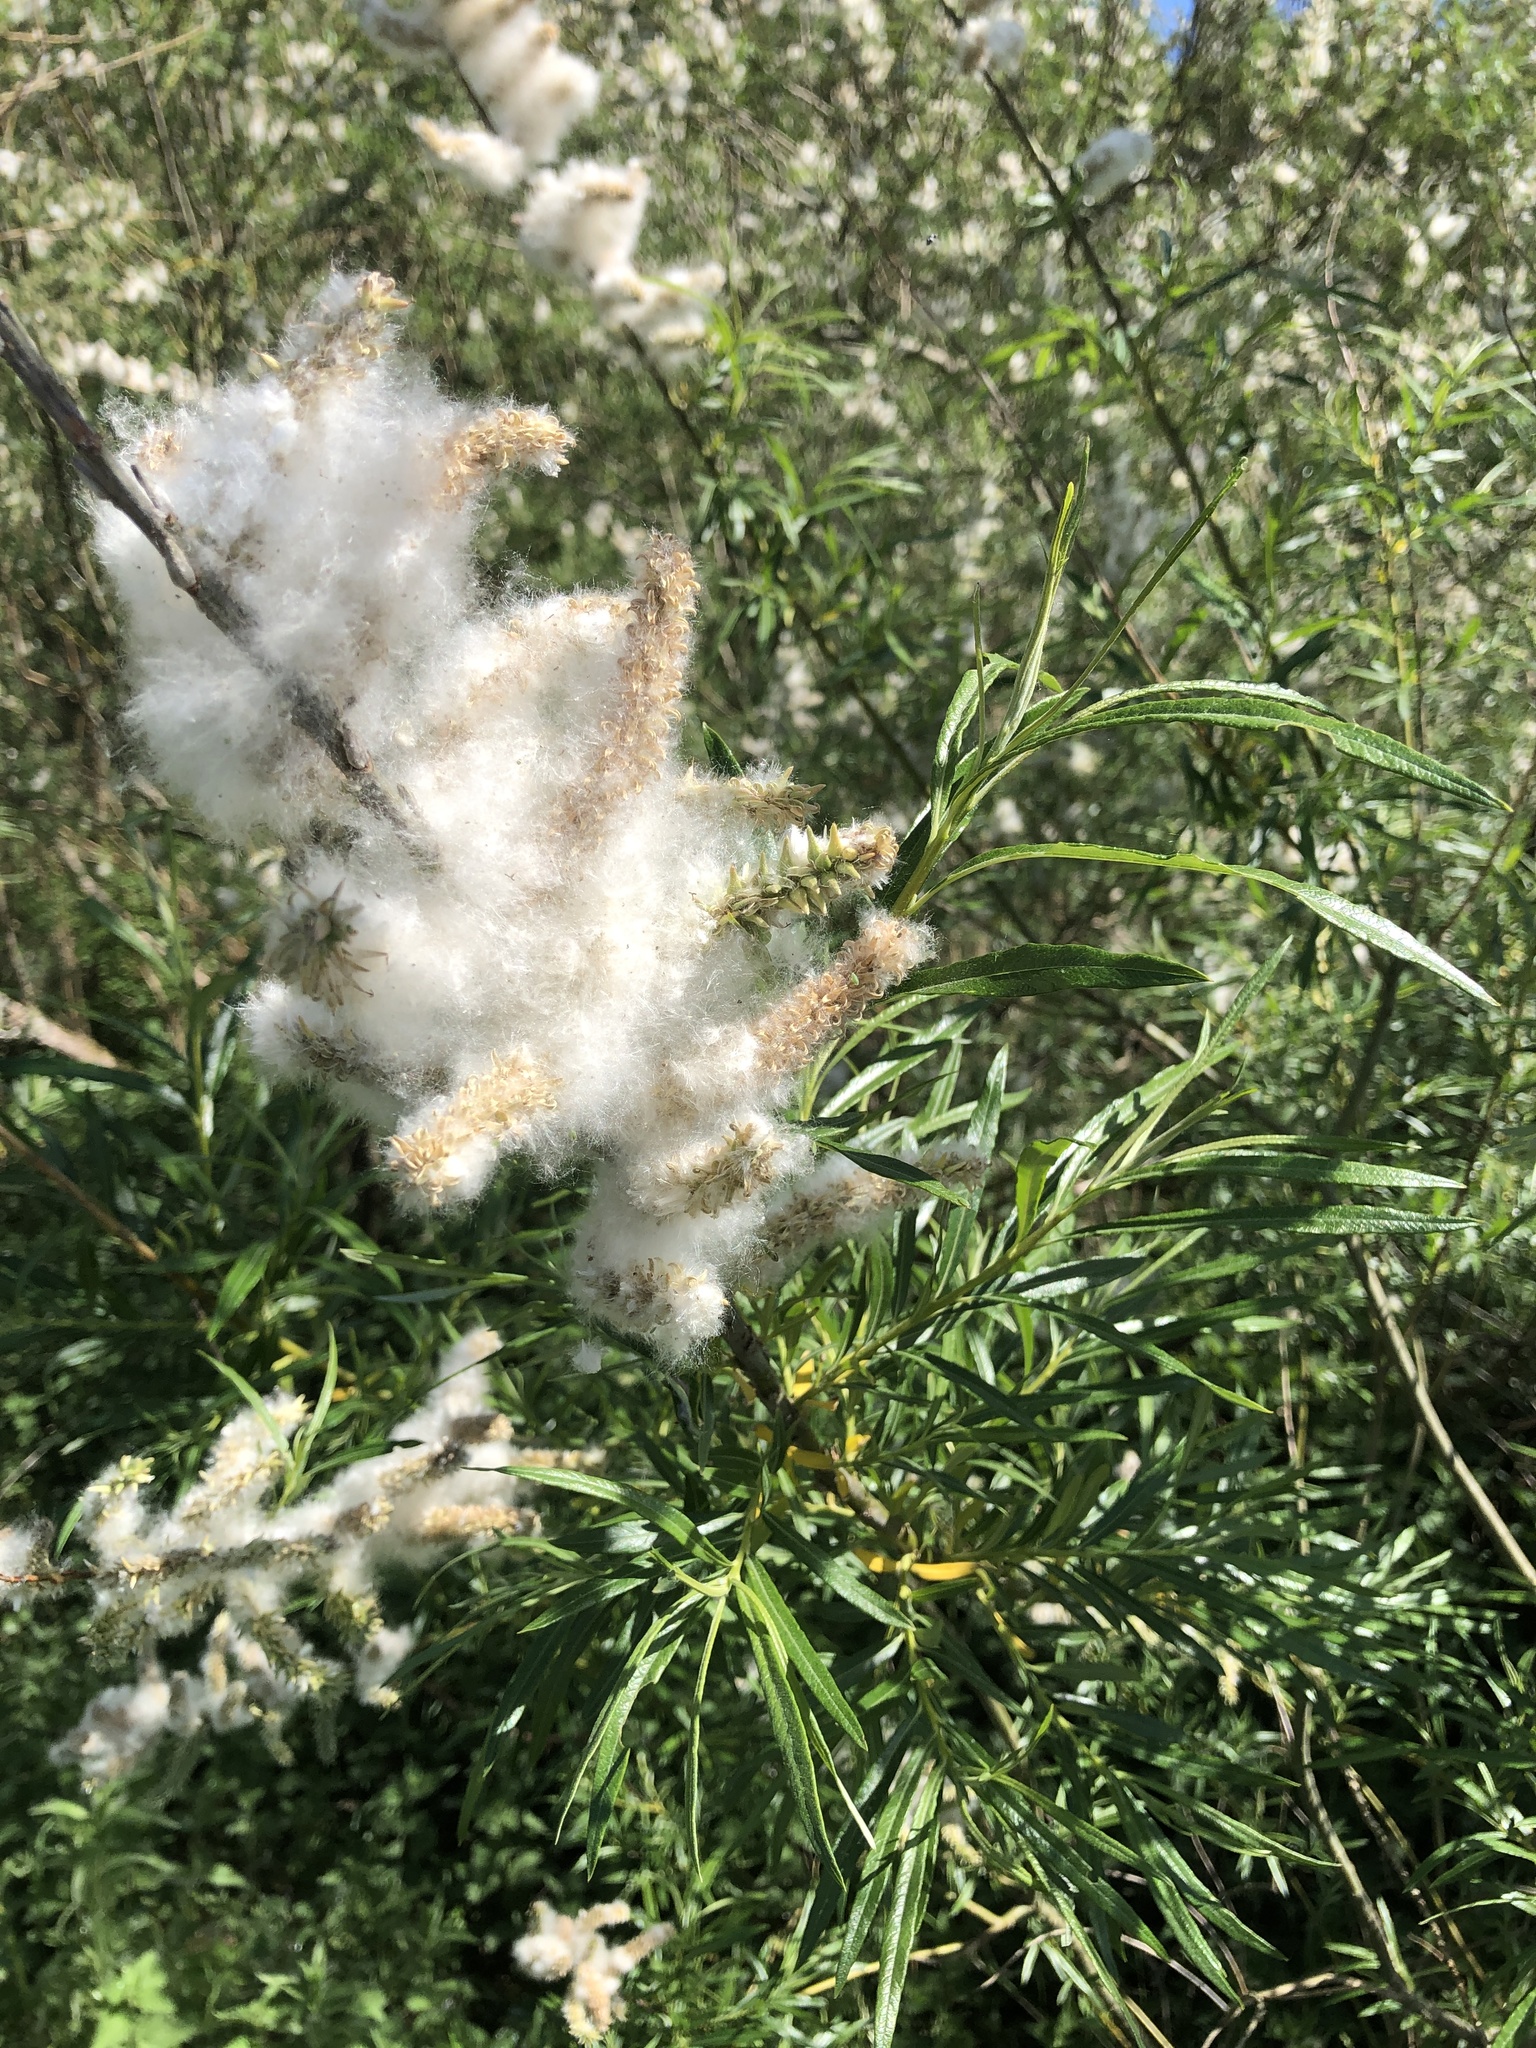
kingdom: Plantae
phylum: Tracheophyta
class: Magnoliopsida
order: Malpighiales
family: Salicaceae
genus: Salix
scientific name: Salix viminalis
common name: Osier
